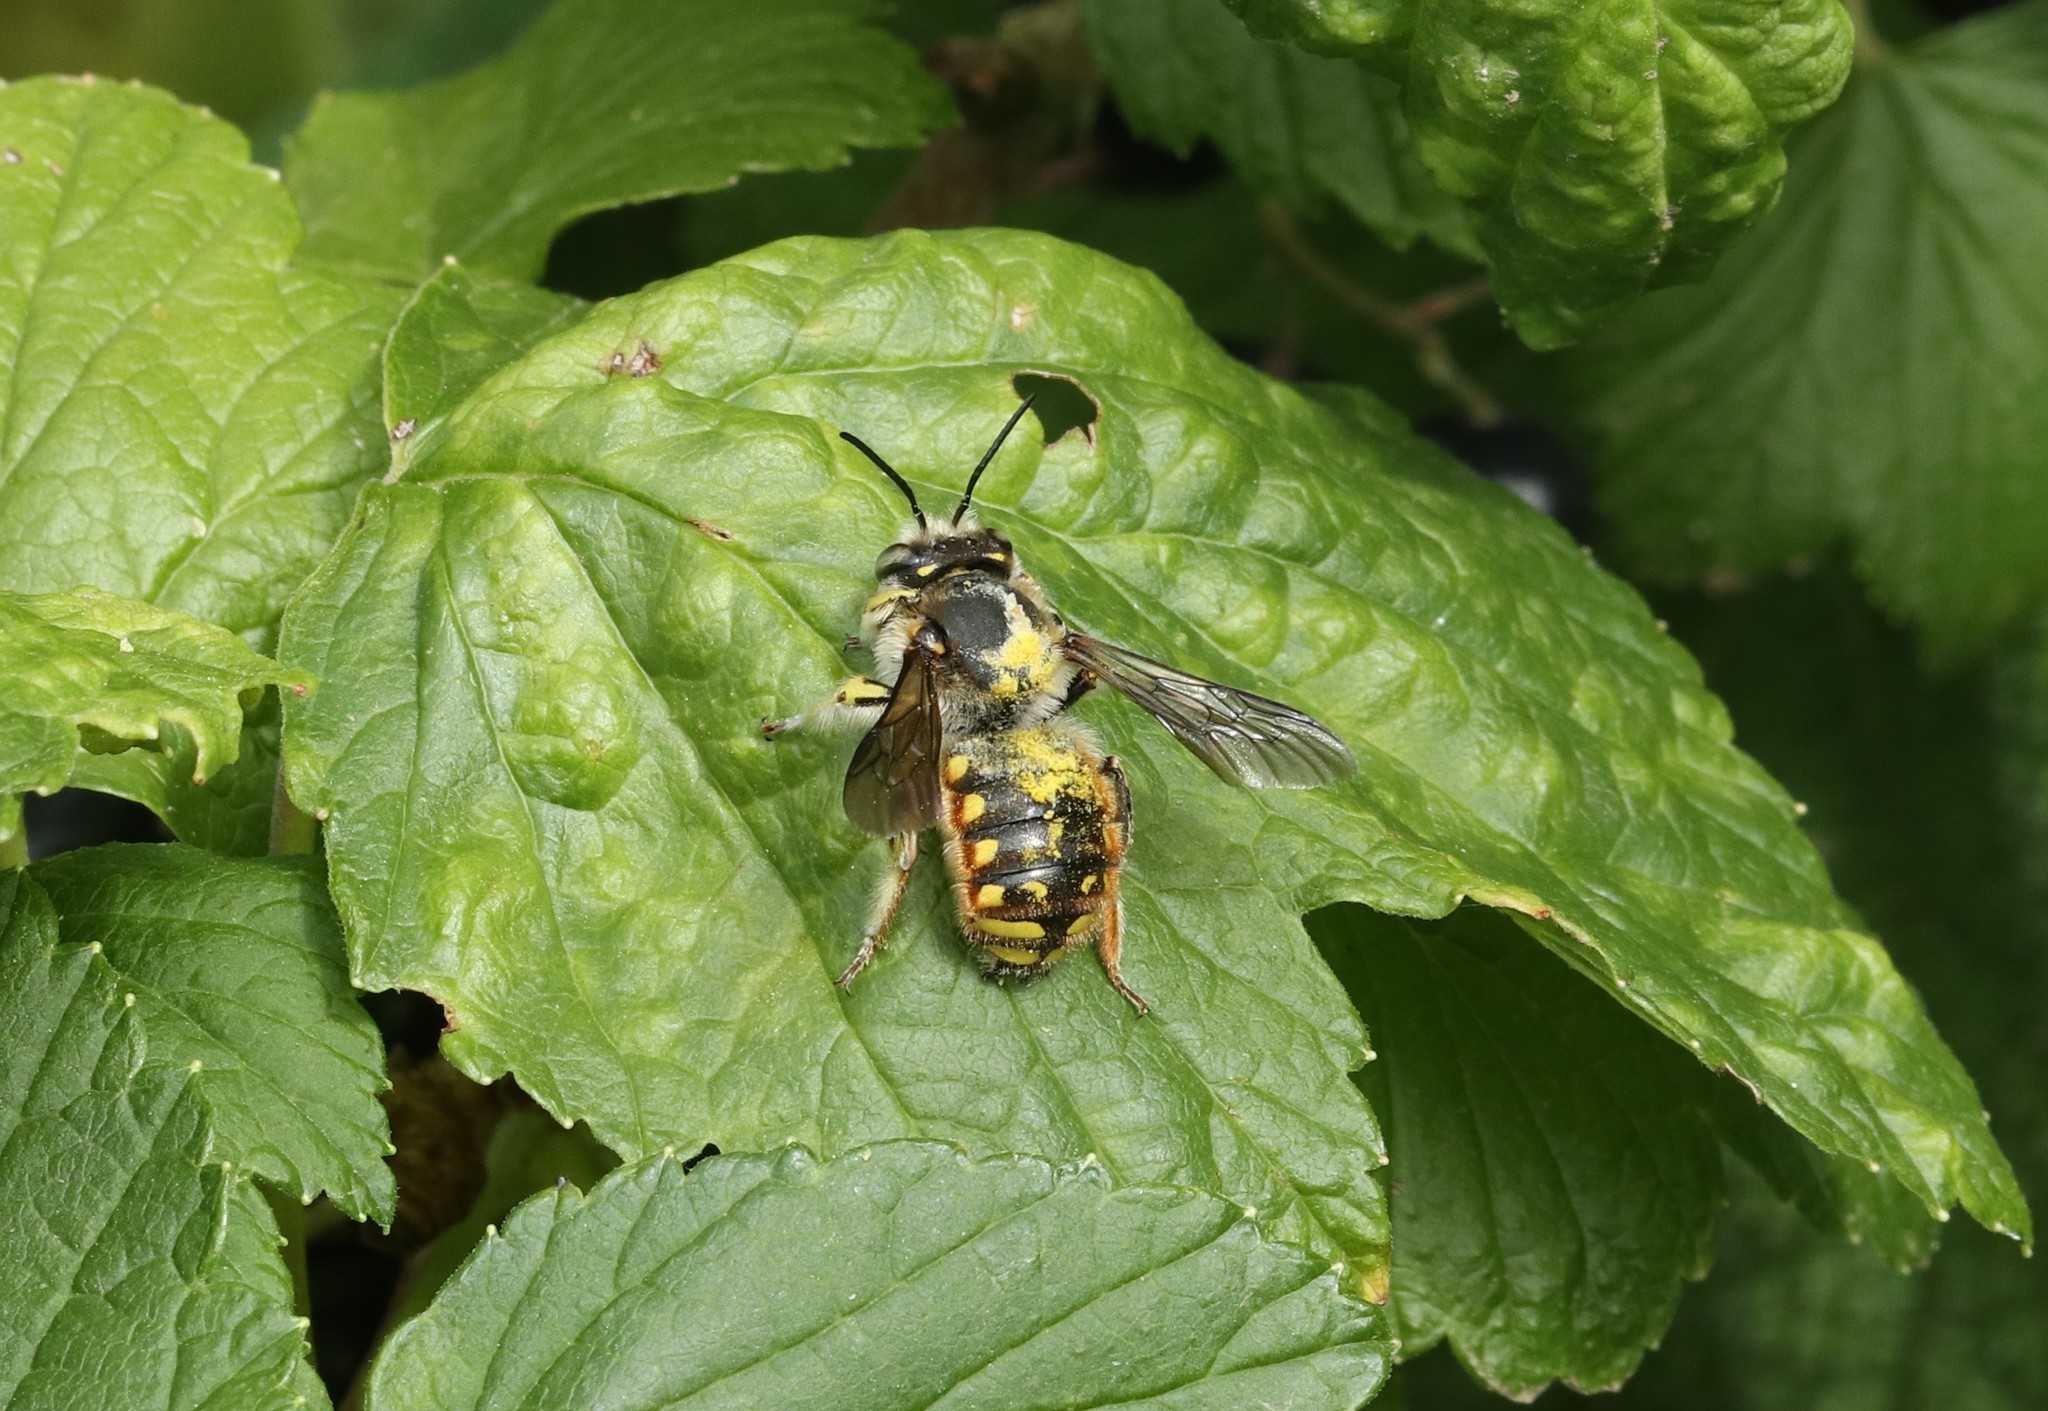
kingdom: Animalia
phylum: Arthropoda
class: Insecta
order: Hymenoptera
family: Megachilidae
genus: Anthidium
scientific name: Anthidium manicatum
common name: Wool carder bee
